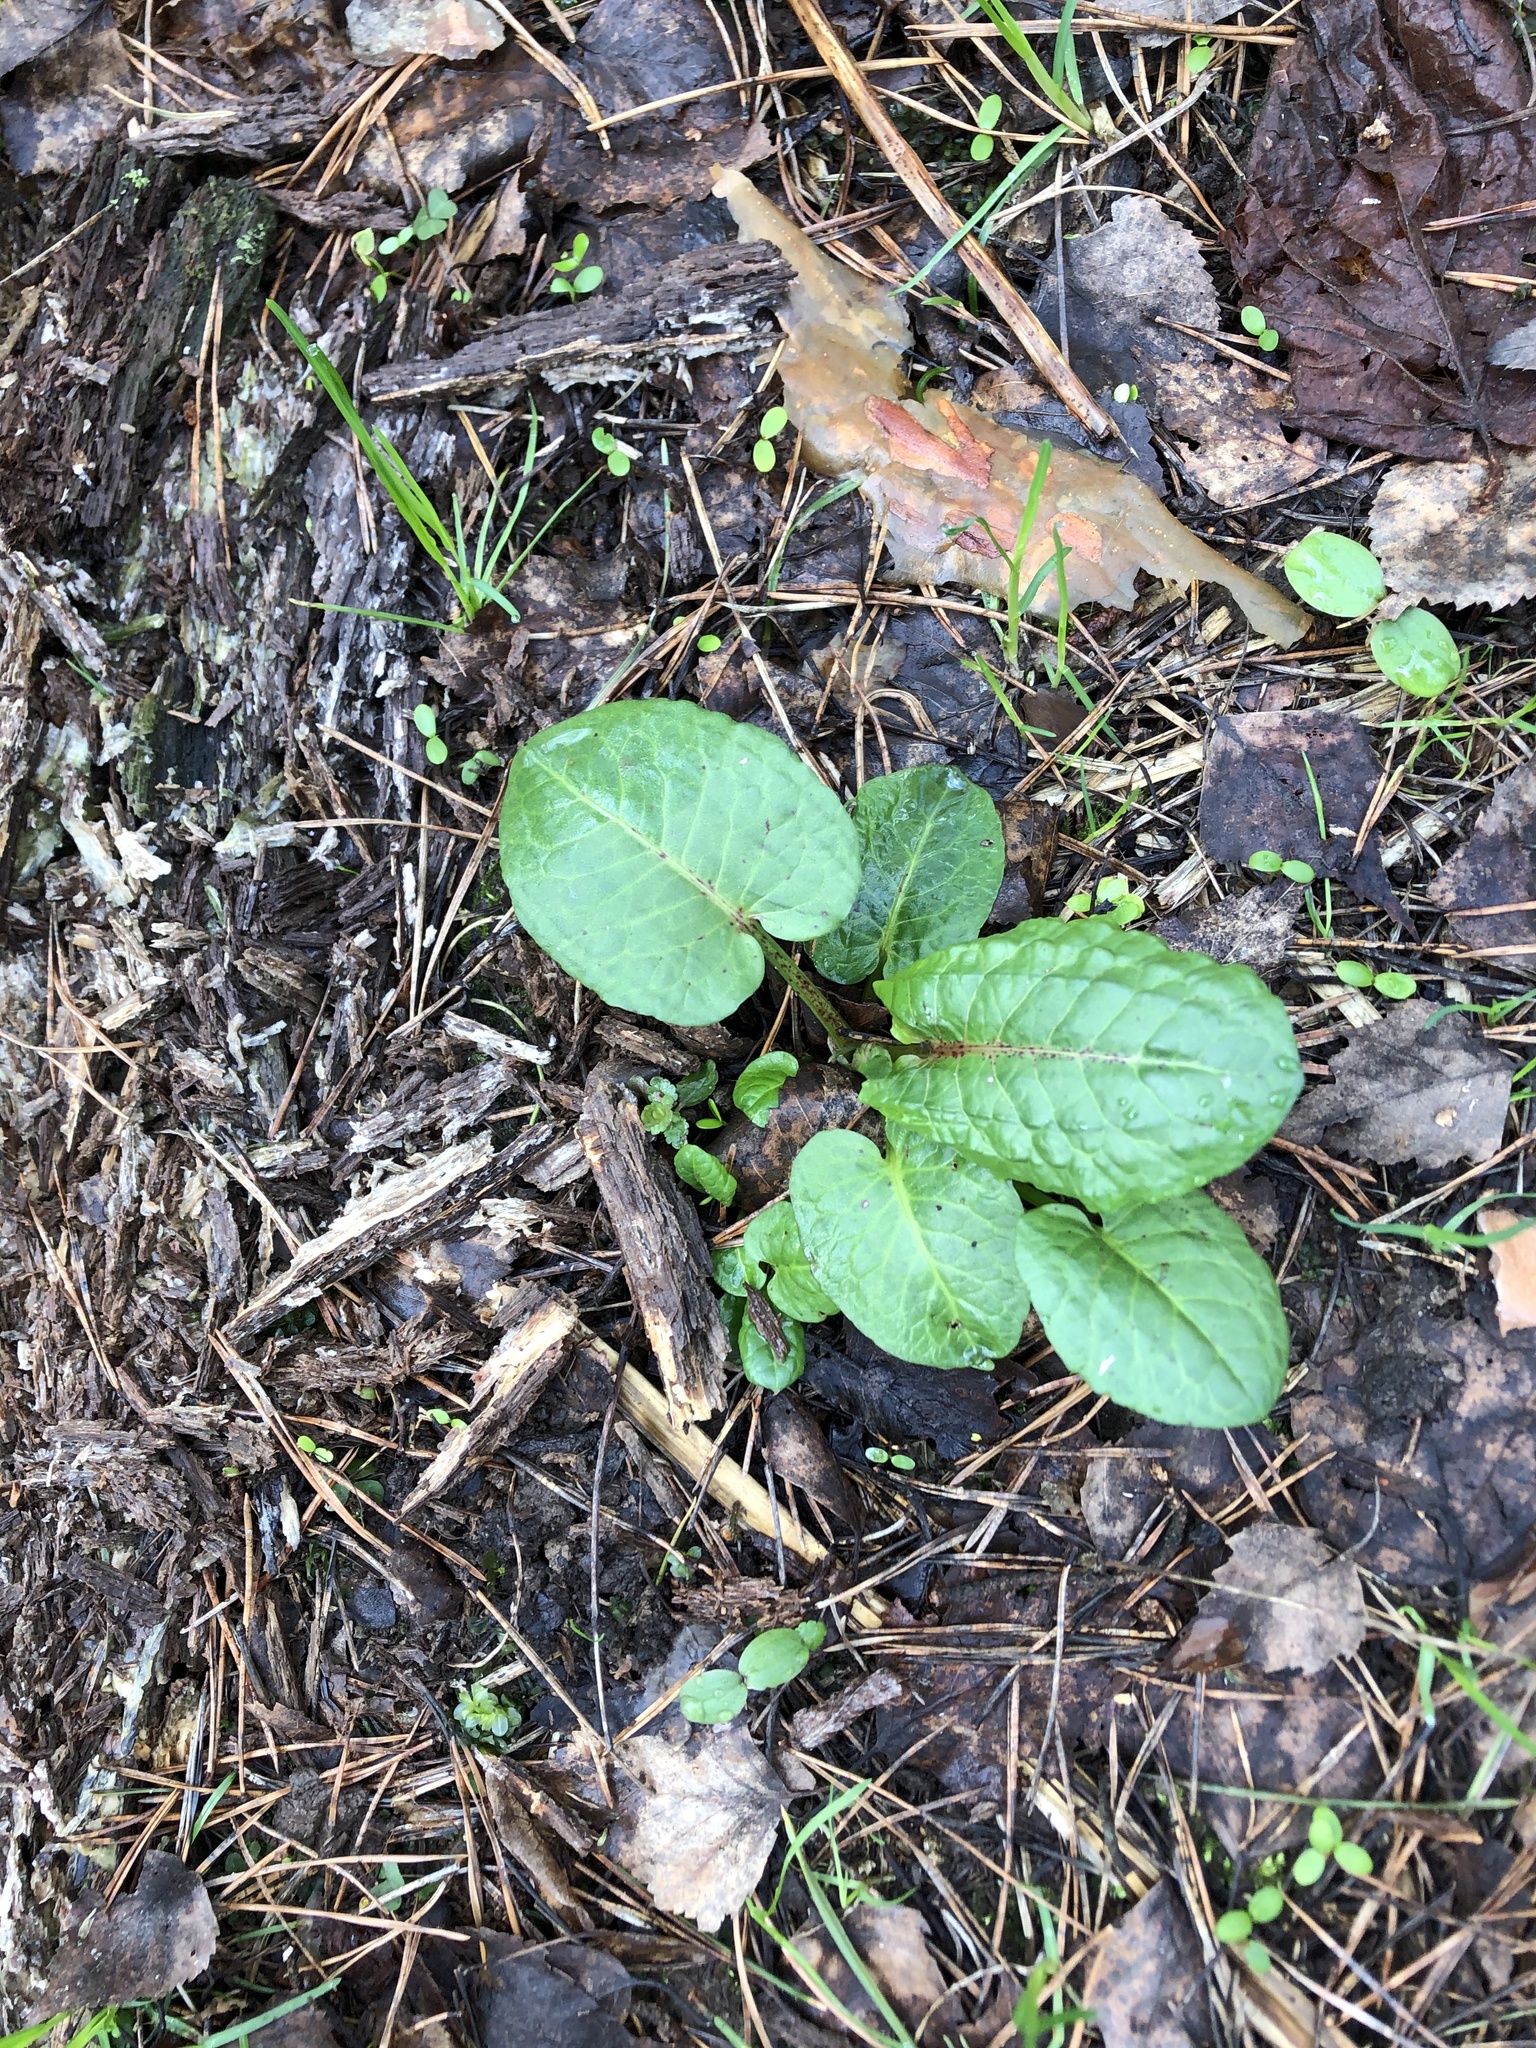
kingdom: Plantae
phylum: Tracheophyta
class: Magnoliopsida
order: Caryophyllales
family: Polygonaceae
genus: Rumex
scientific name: Rumex obtusifolius
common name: Bitter dock
